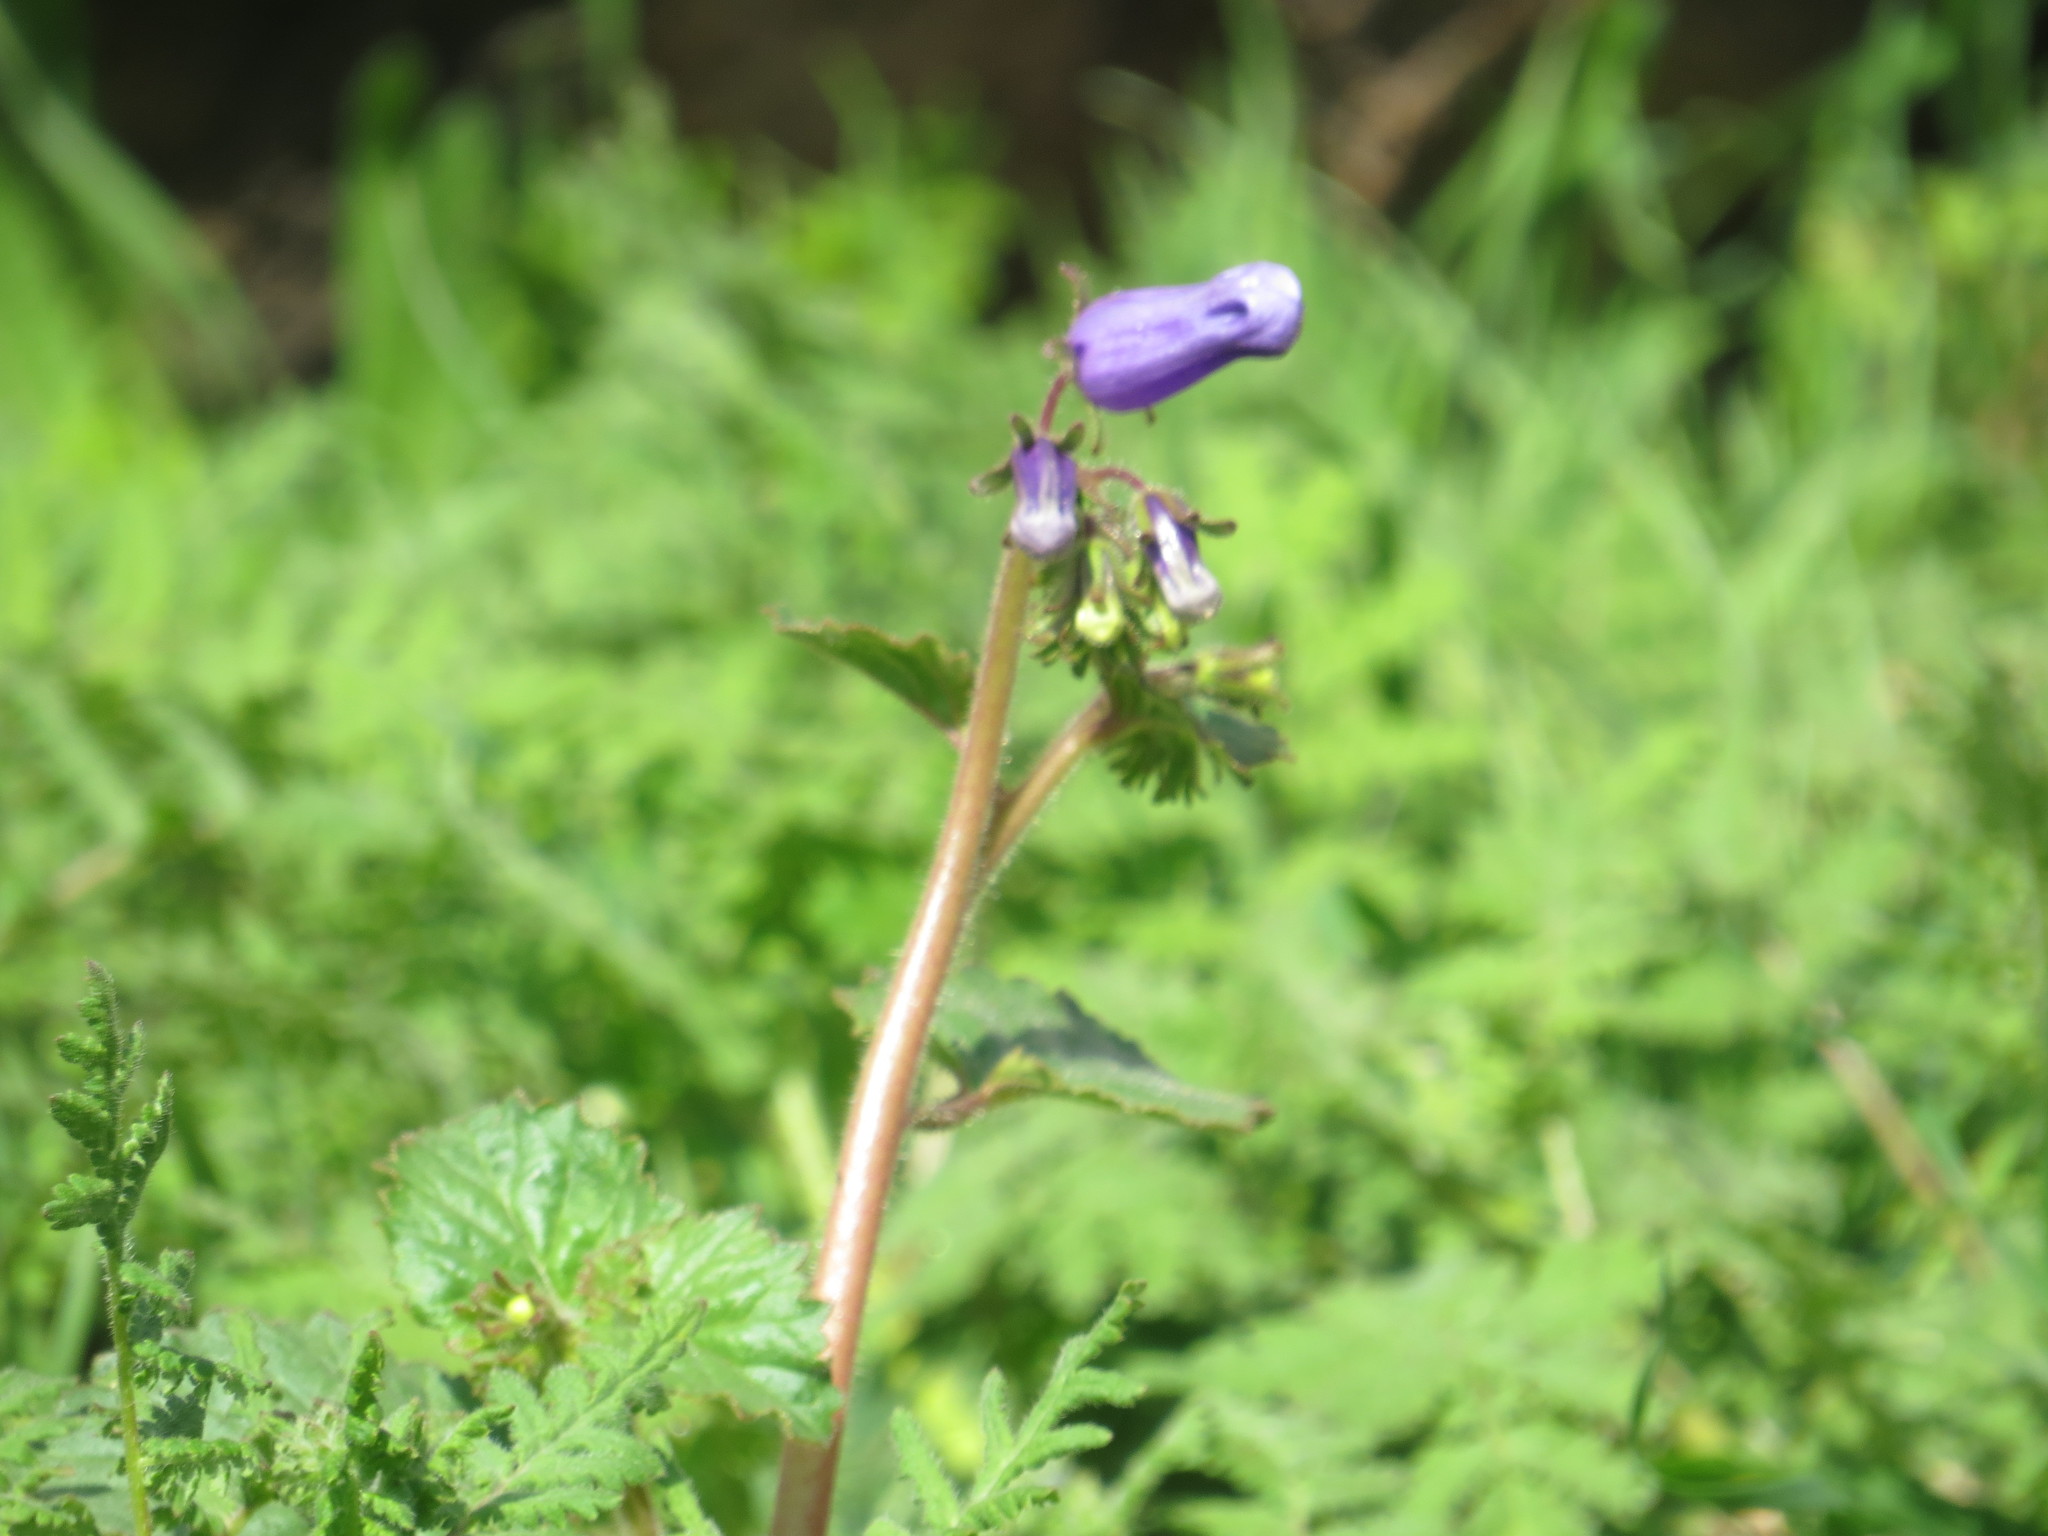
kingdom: Plantae
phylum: Tracheophyta
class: Magnoliopsida
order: Boraginales
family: Hydrophyllaceae
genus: Phacelia
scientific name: Phacelia minor
